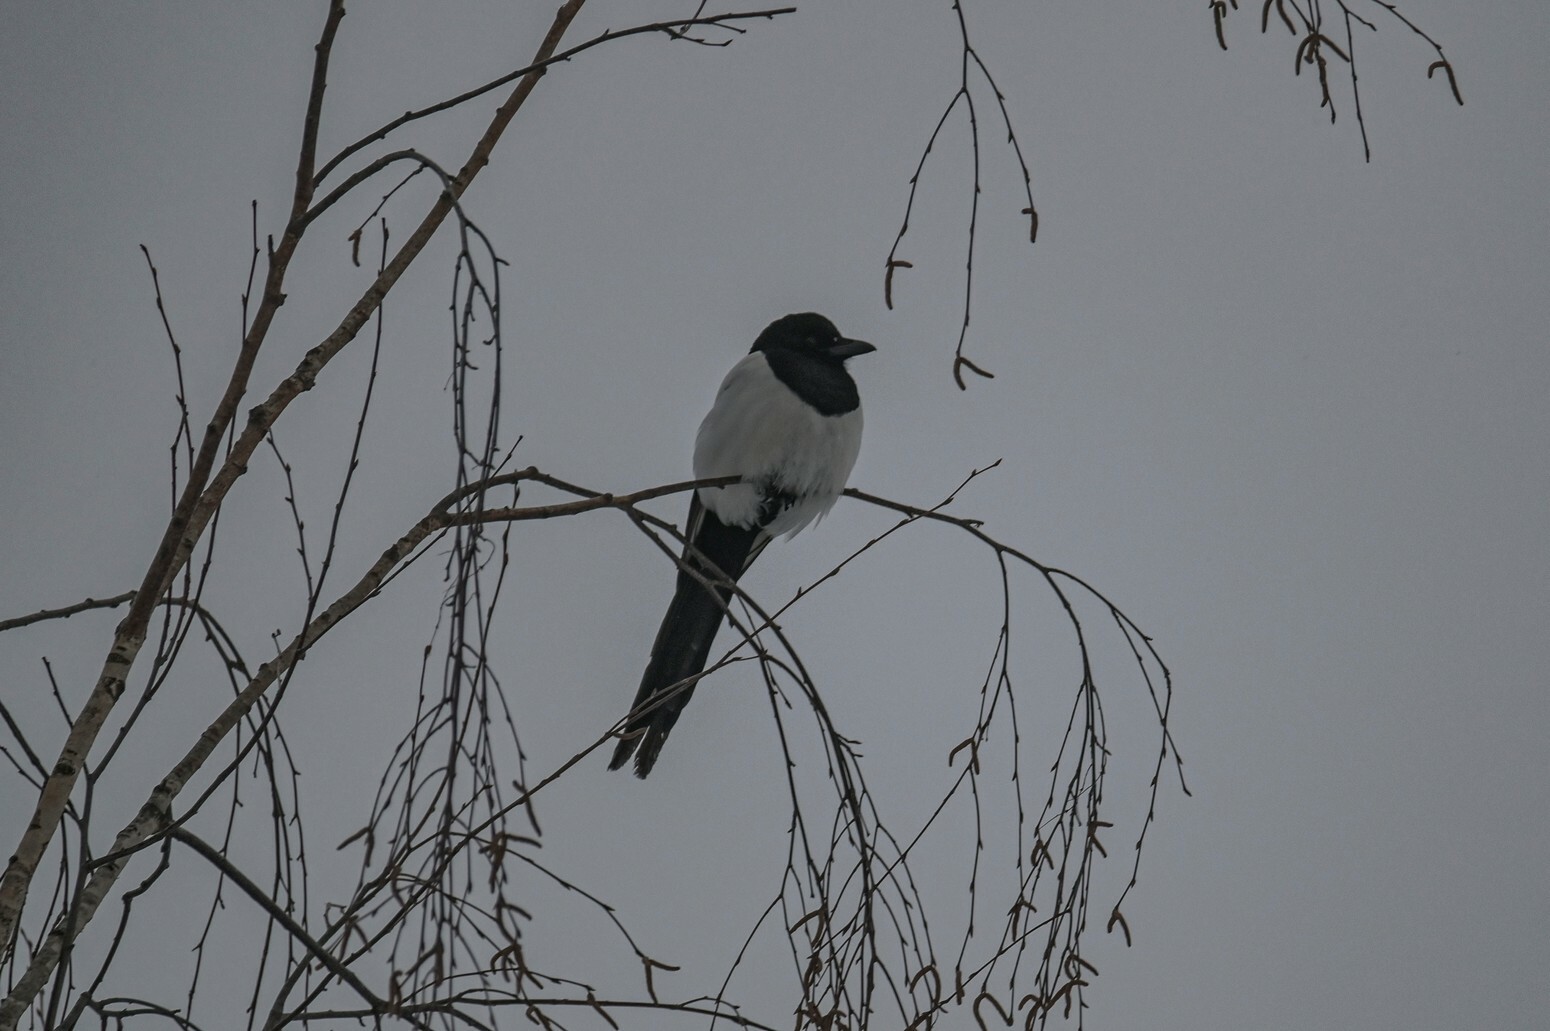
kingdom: Animalia
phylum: Chordata
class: Aves
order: Passeriformes
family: Corvidae
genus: Pica
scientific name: Pica pica
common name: Eurasian magpie
